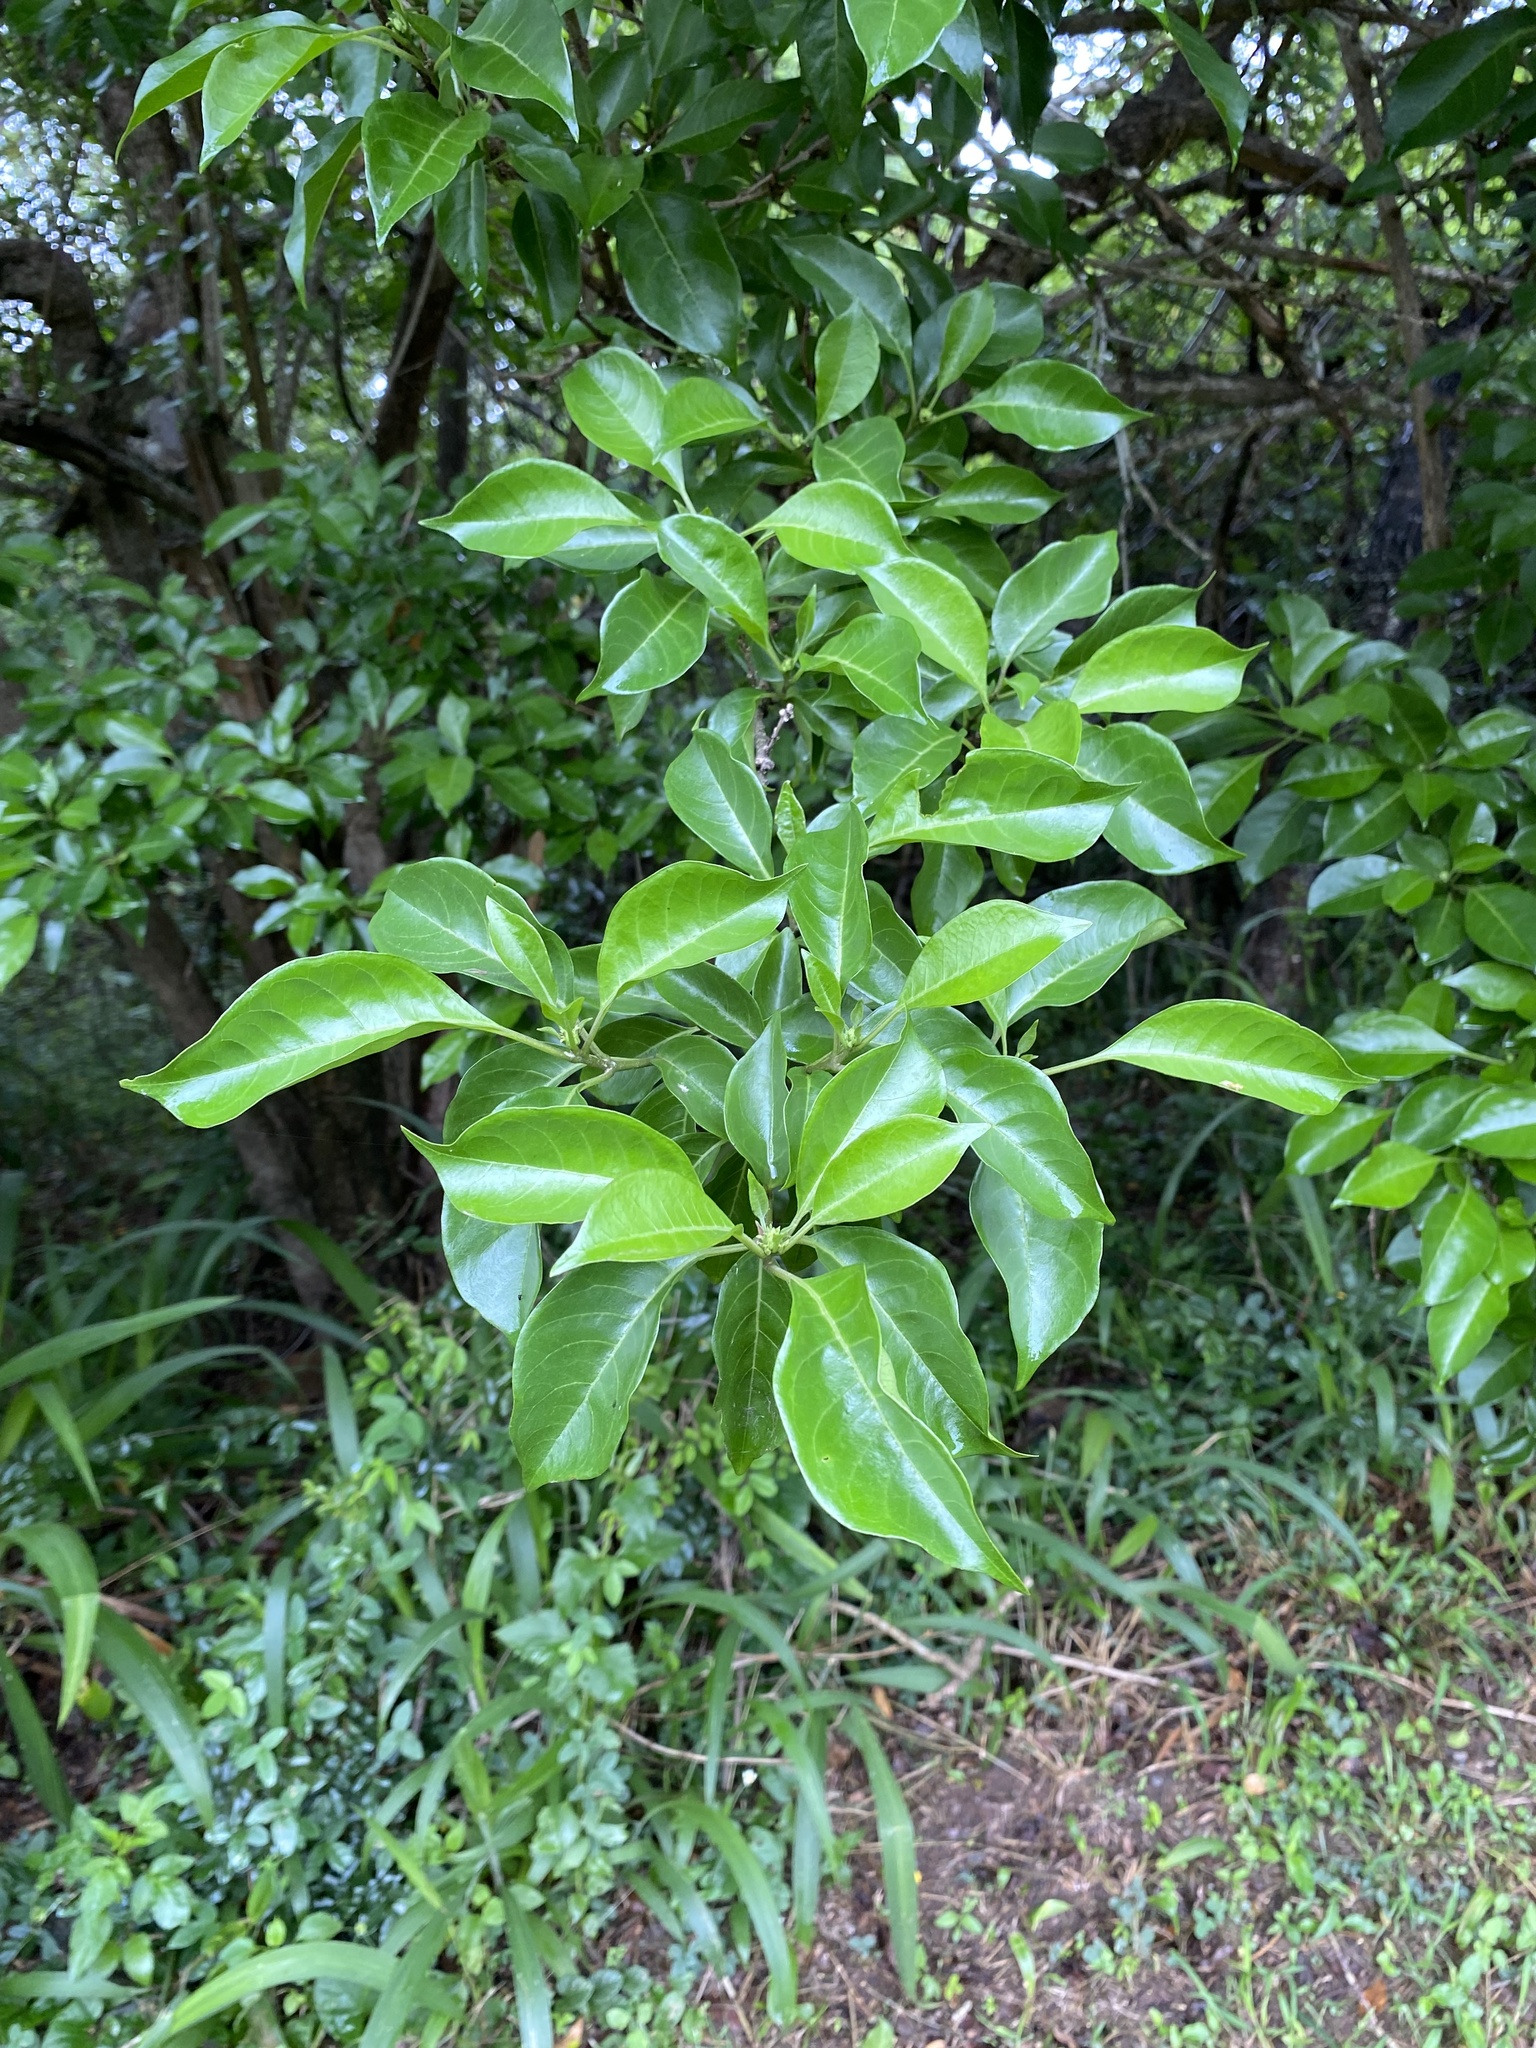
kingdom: Plantae
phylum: Tracheophyta
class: Magnoliopsida
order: Lamiales
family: Lamiaceae
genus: Volkameria
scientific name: Volkameria glabra
